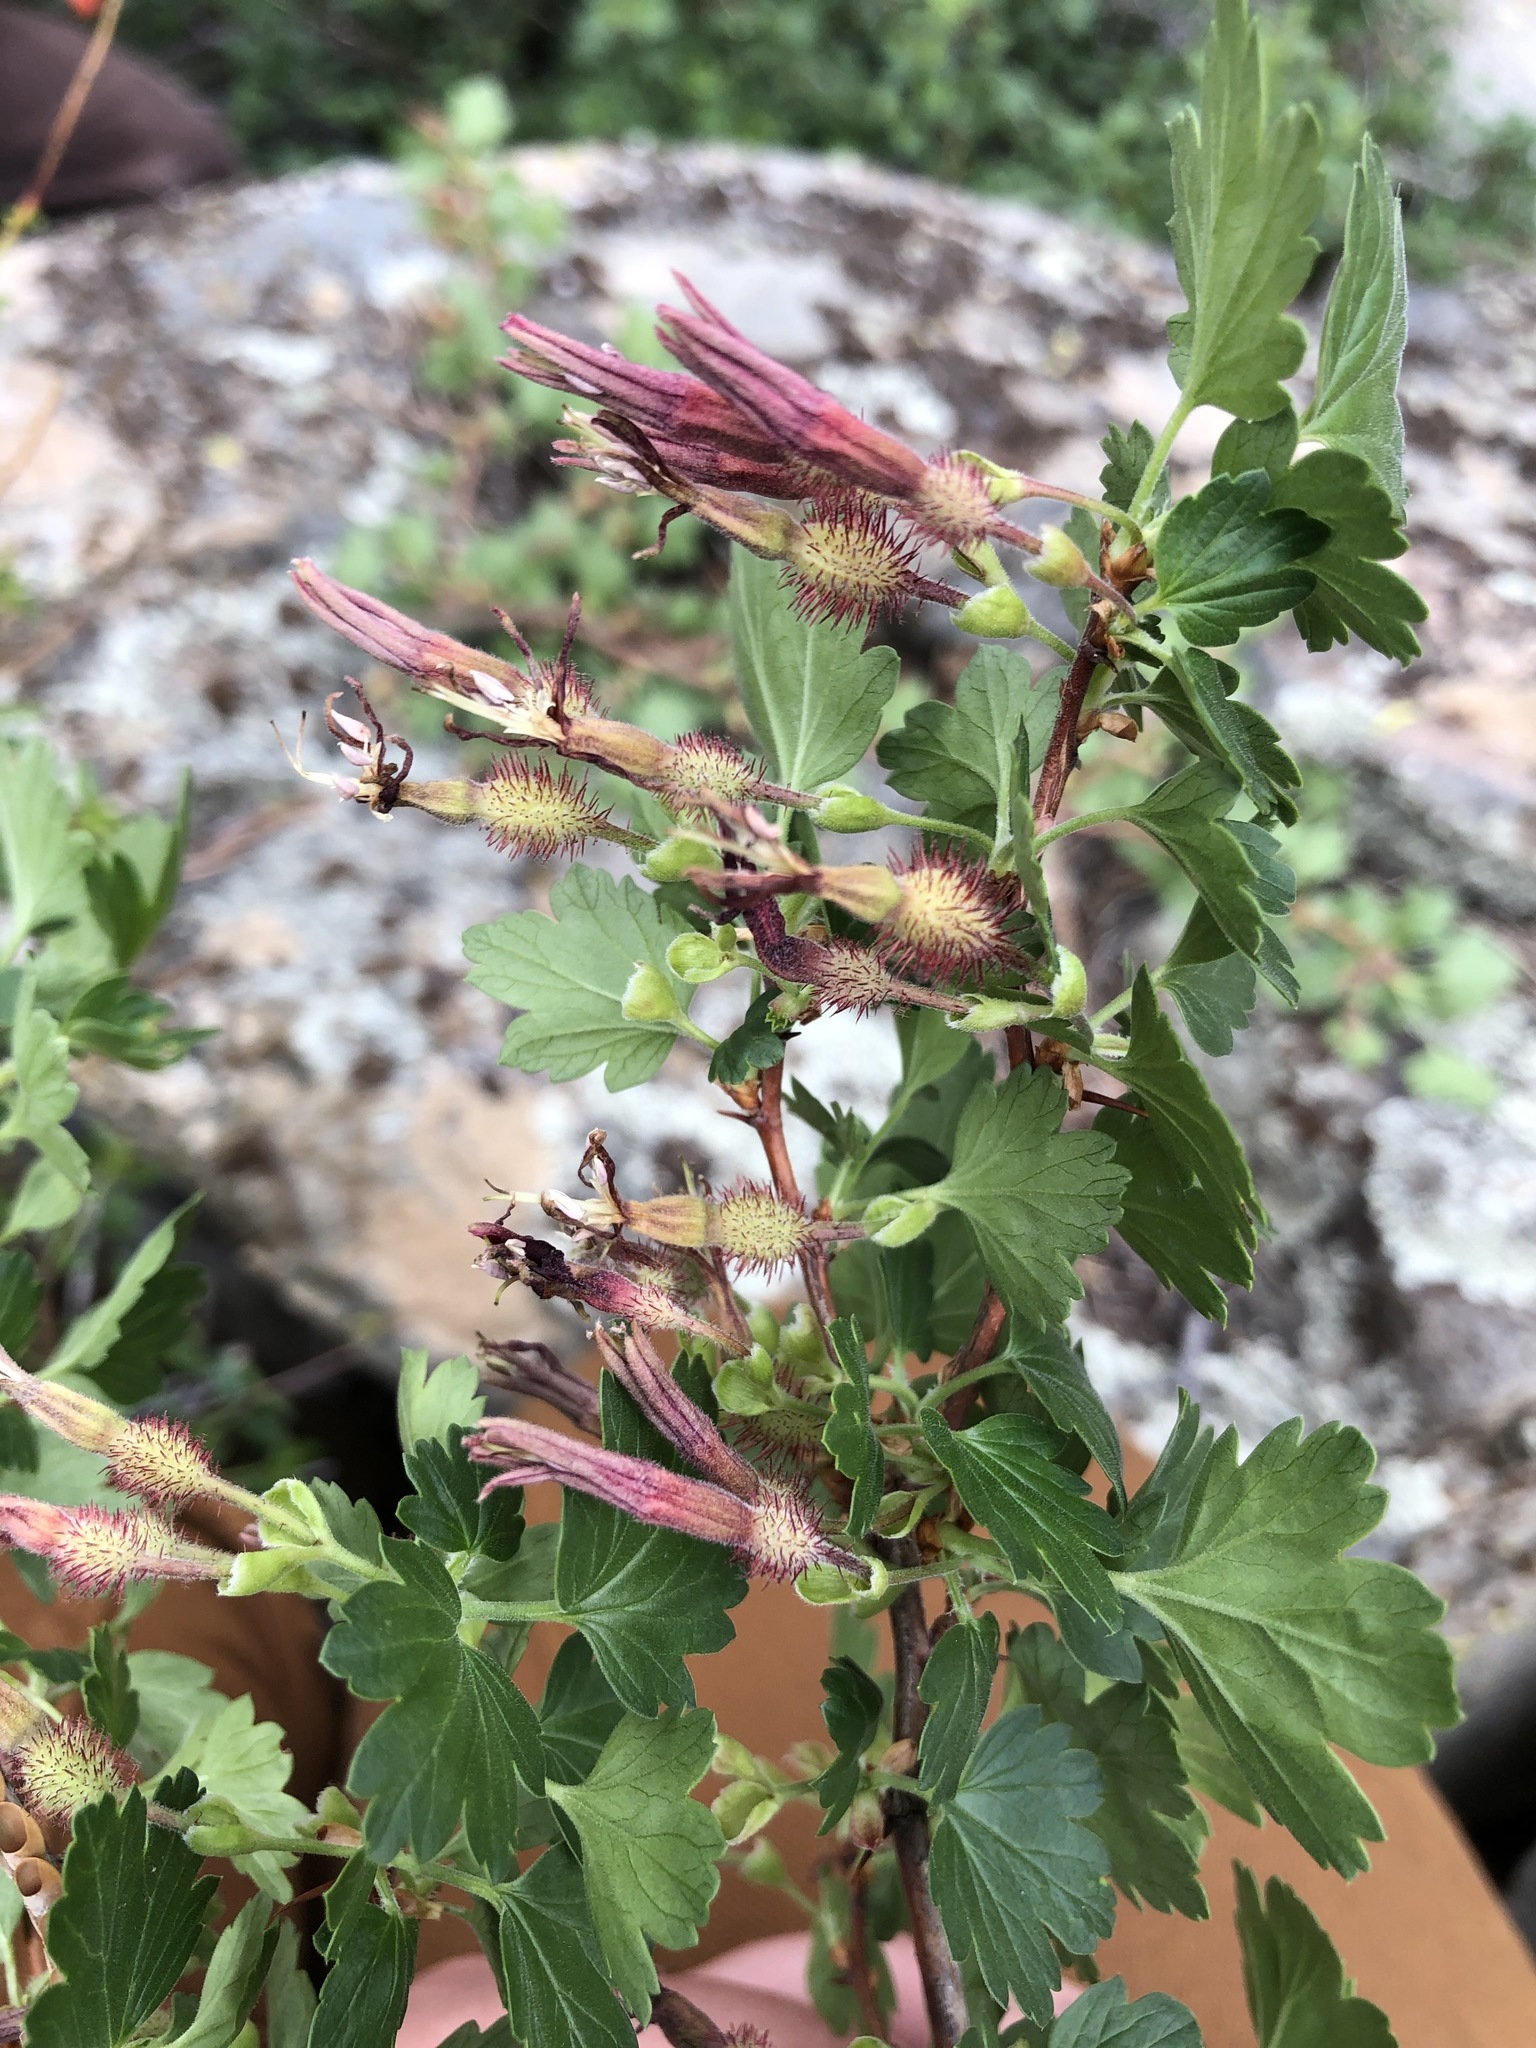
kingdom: Plantae
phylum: Tracheophyta
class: Magnoliopsida
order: Saxifragales
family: Grossulariaceae
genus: Ribes
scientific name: Ribes roezlii
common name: Sierra gooseberry
